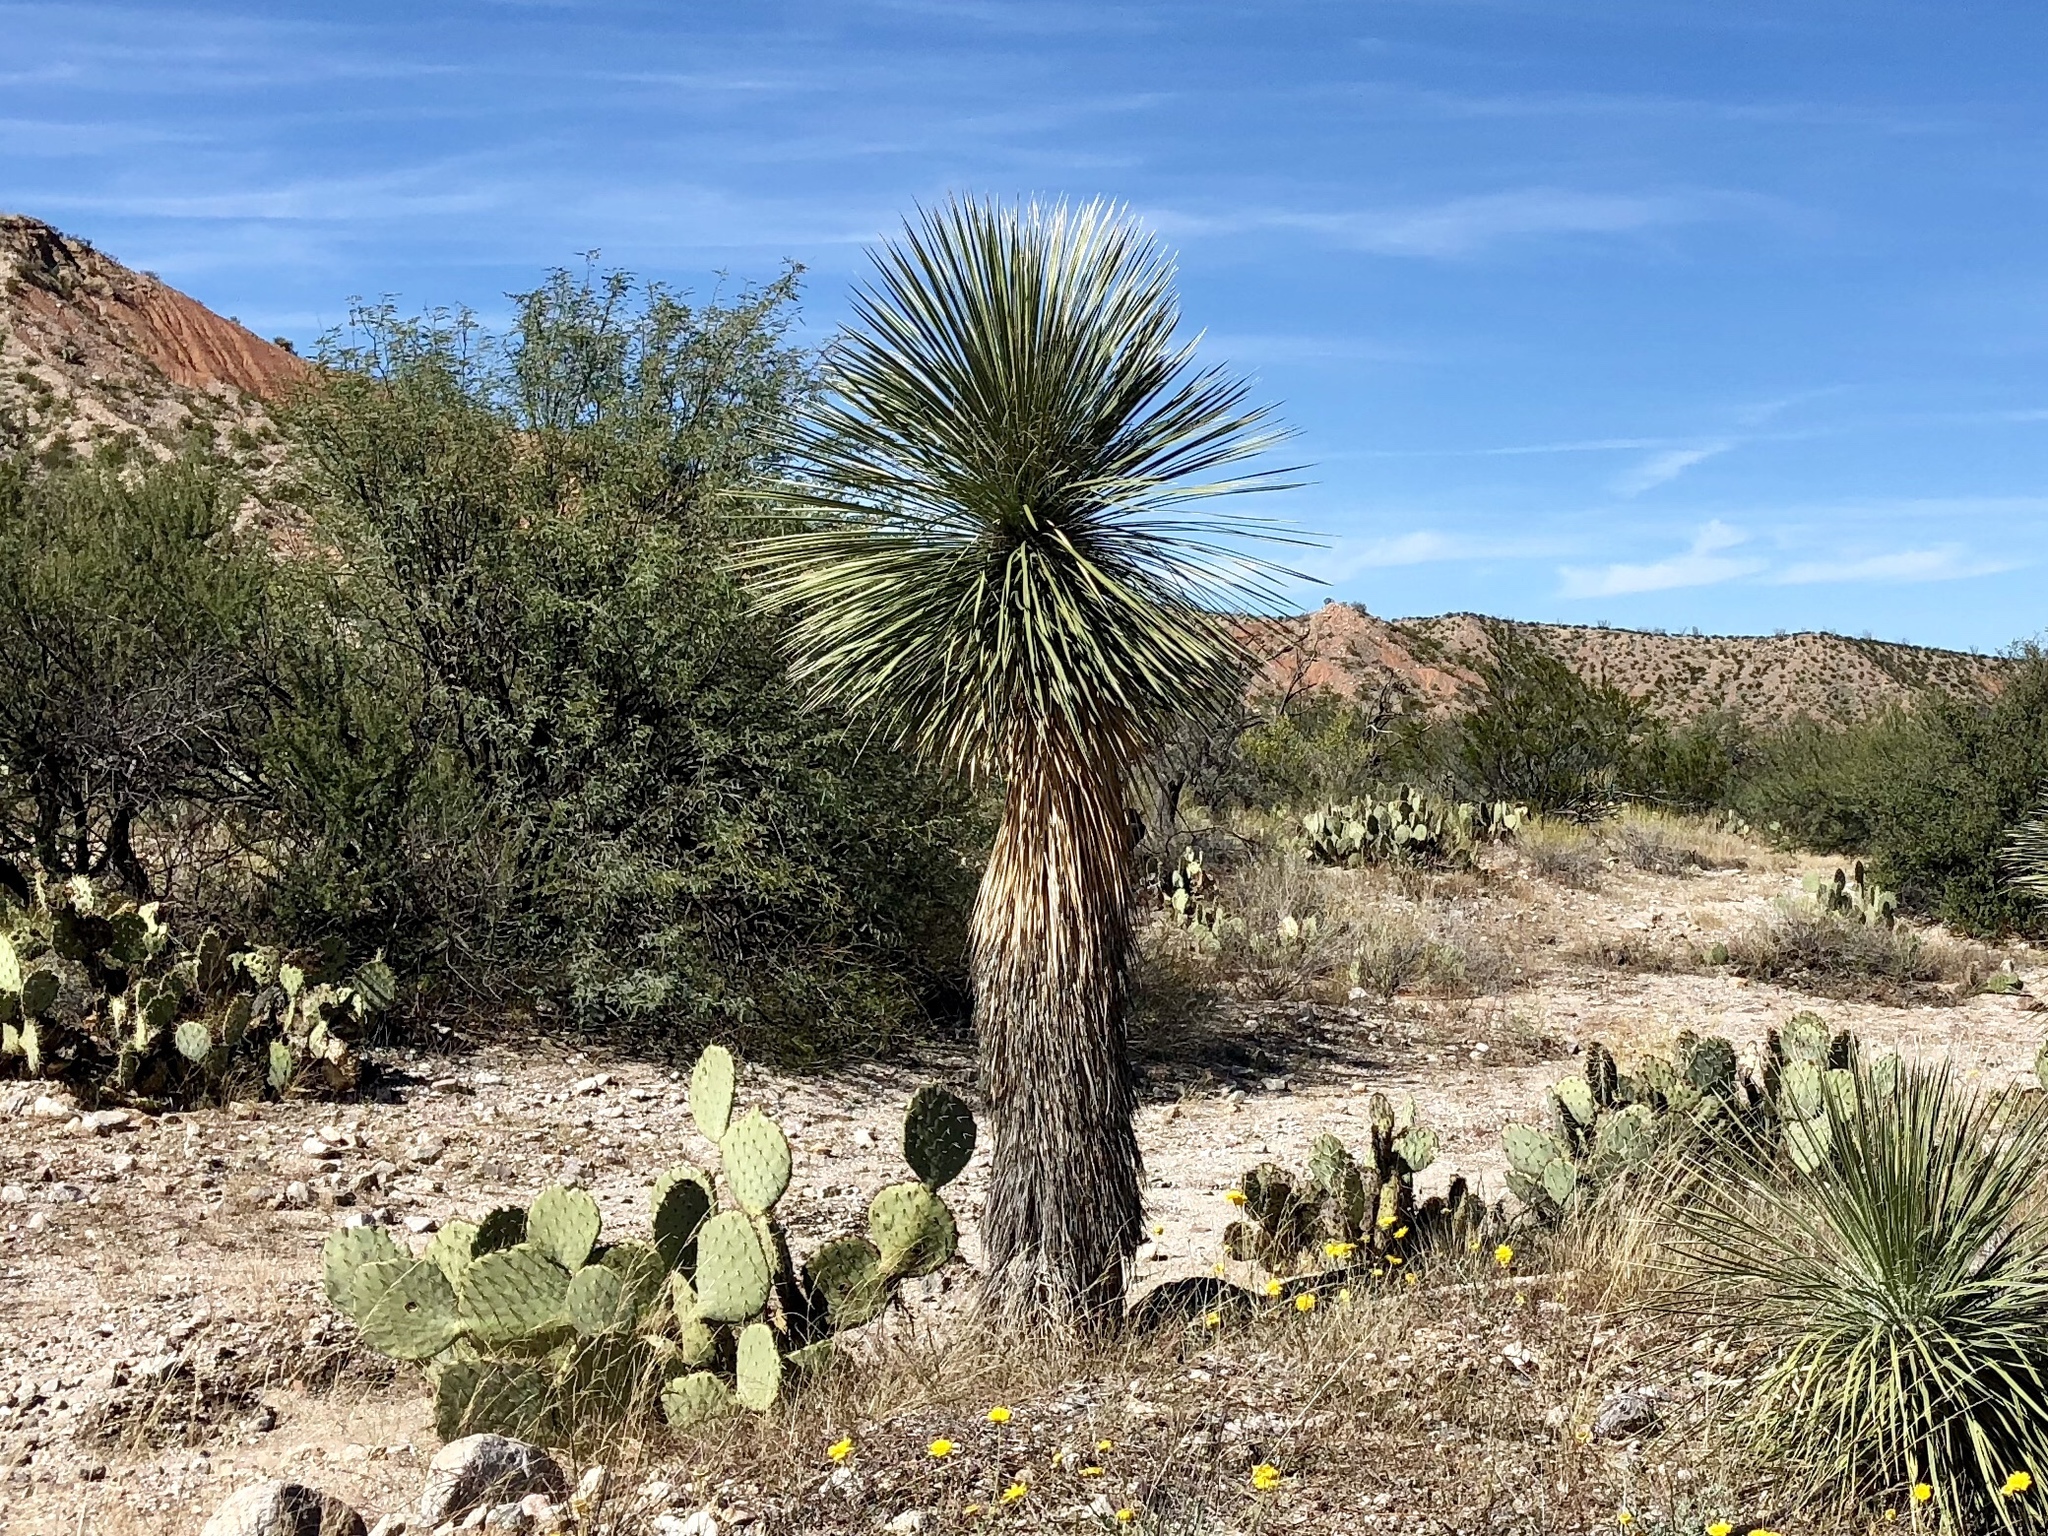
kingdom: Plantae
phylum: Tracheophyta
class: Liliopsida
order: Asparagales
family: Asparagaceae
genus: Yucca
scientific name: Yucca elata
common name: Palmella
